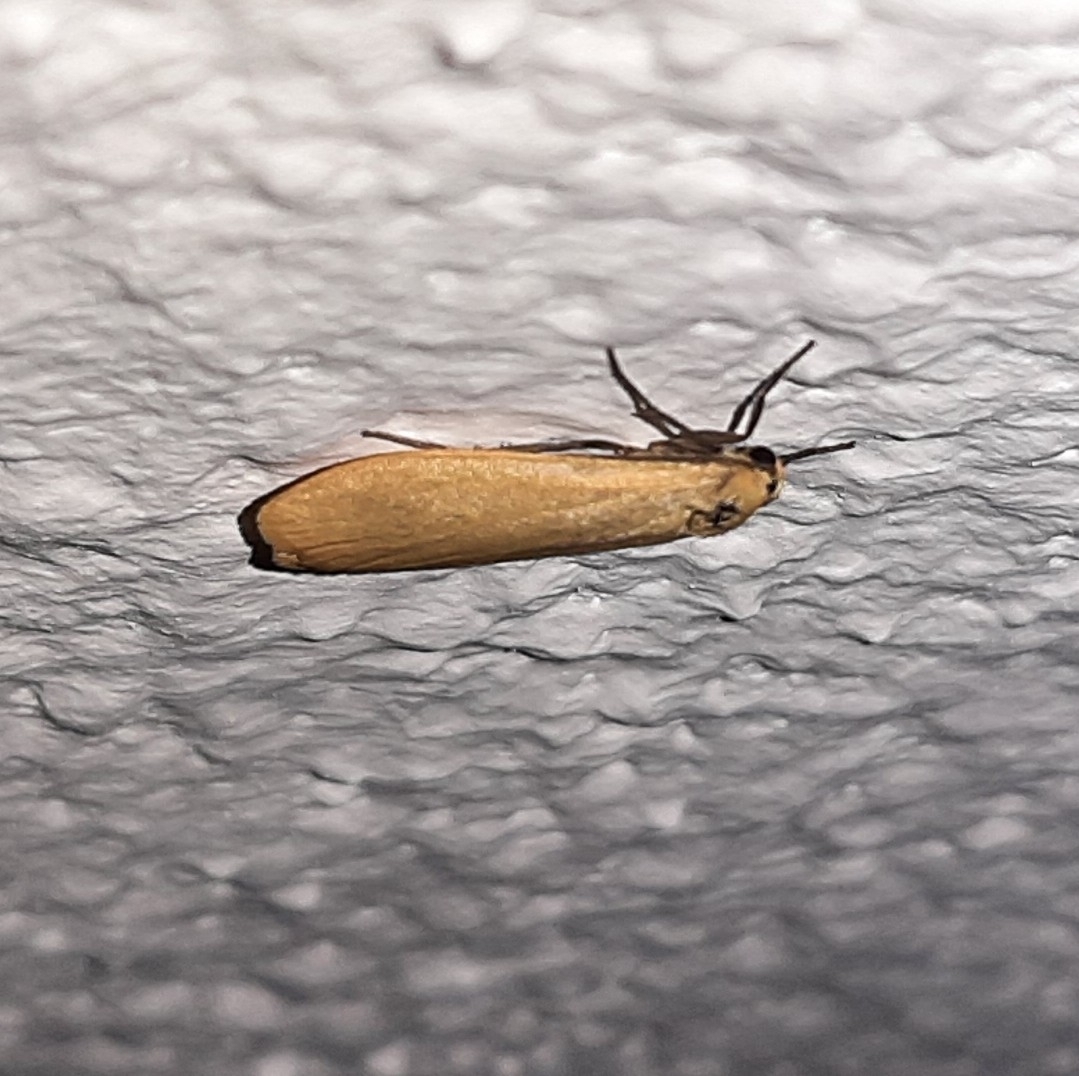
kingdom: Animalia
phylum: Arthropoda
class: Insecta
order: Lepidoptera
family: Erebidae
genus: Wittia
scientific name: Wittia sororcula
